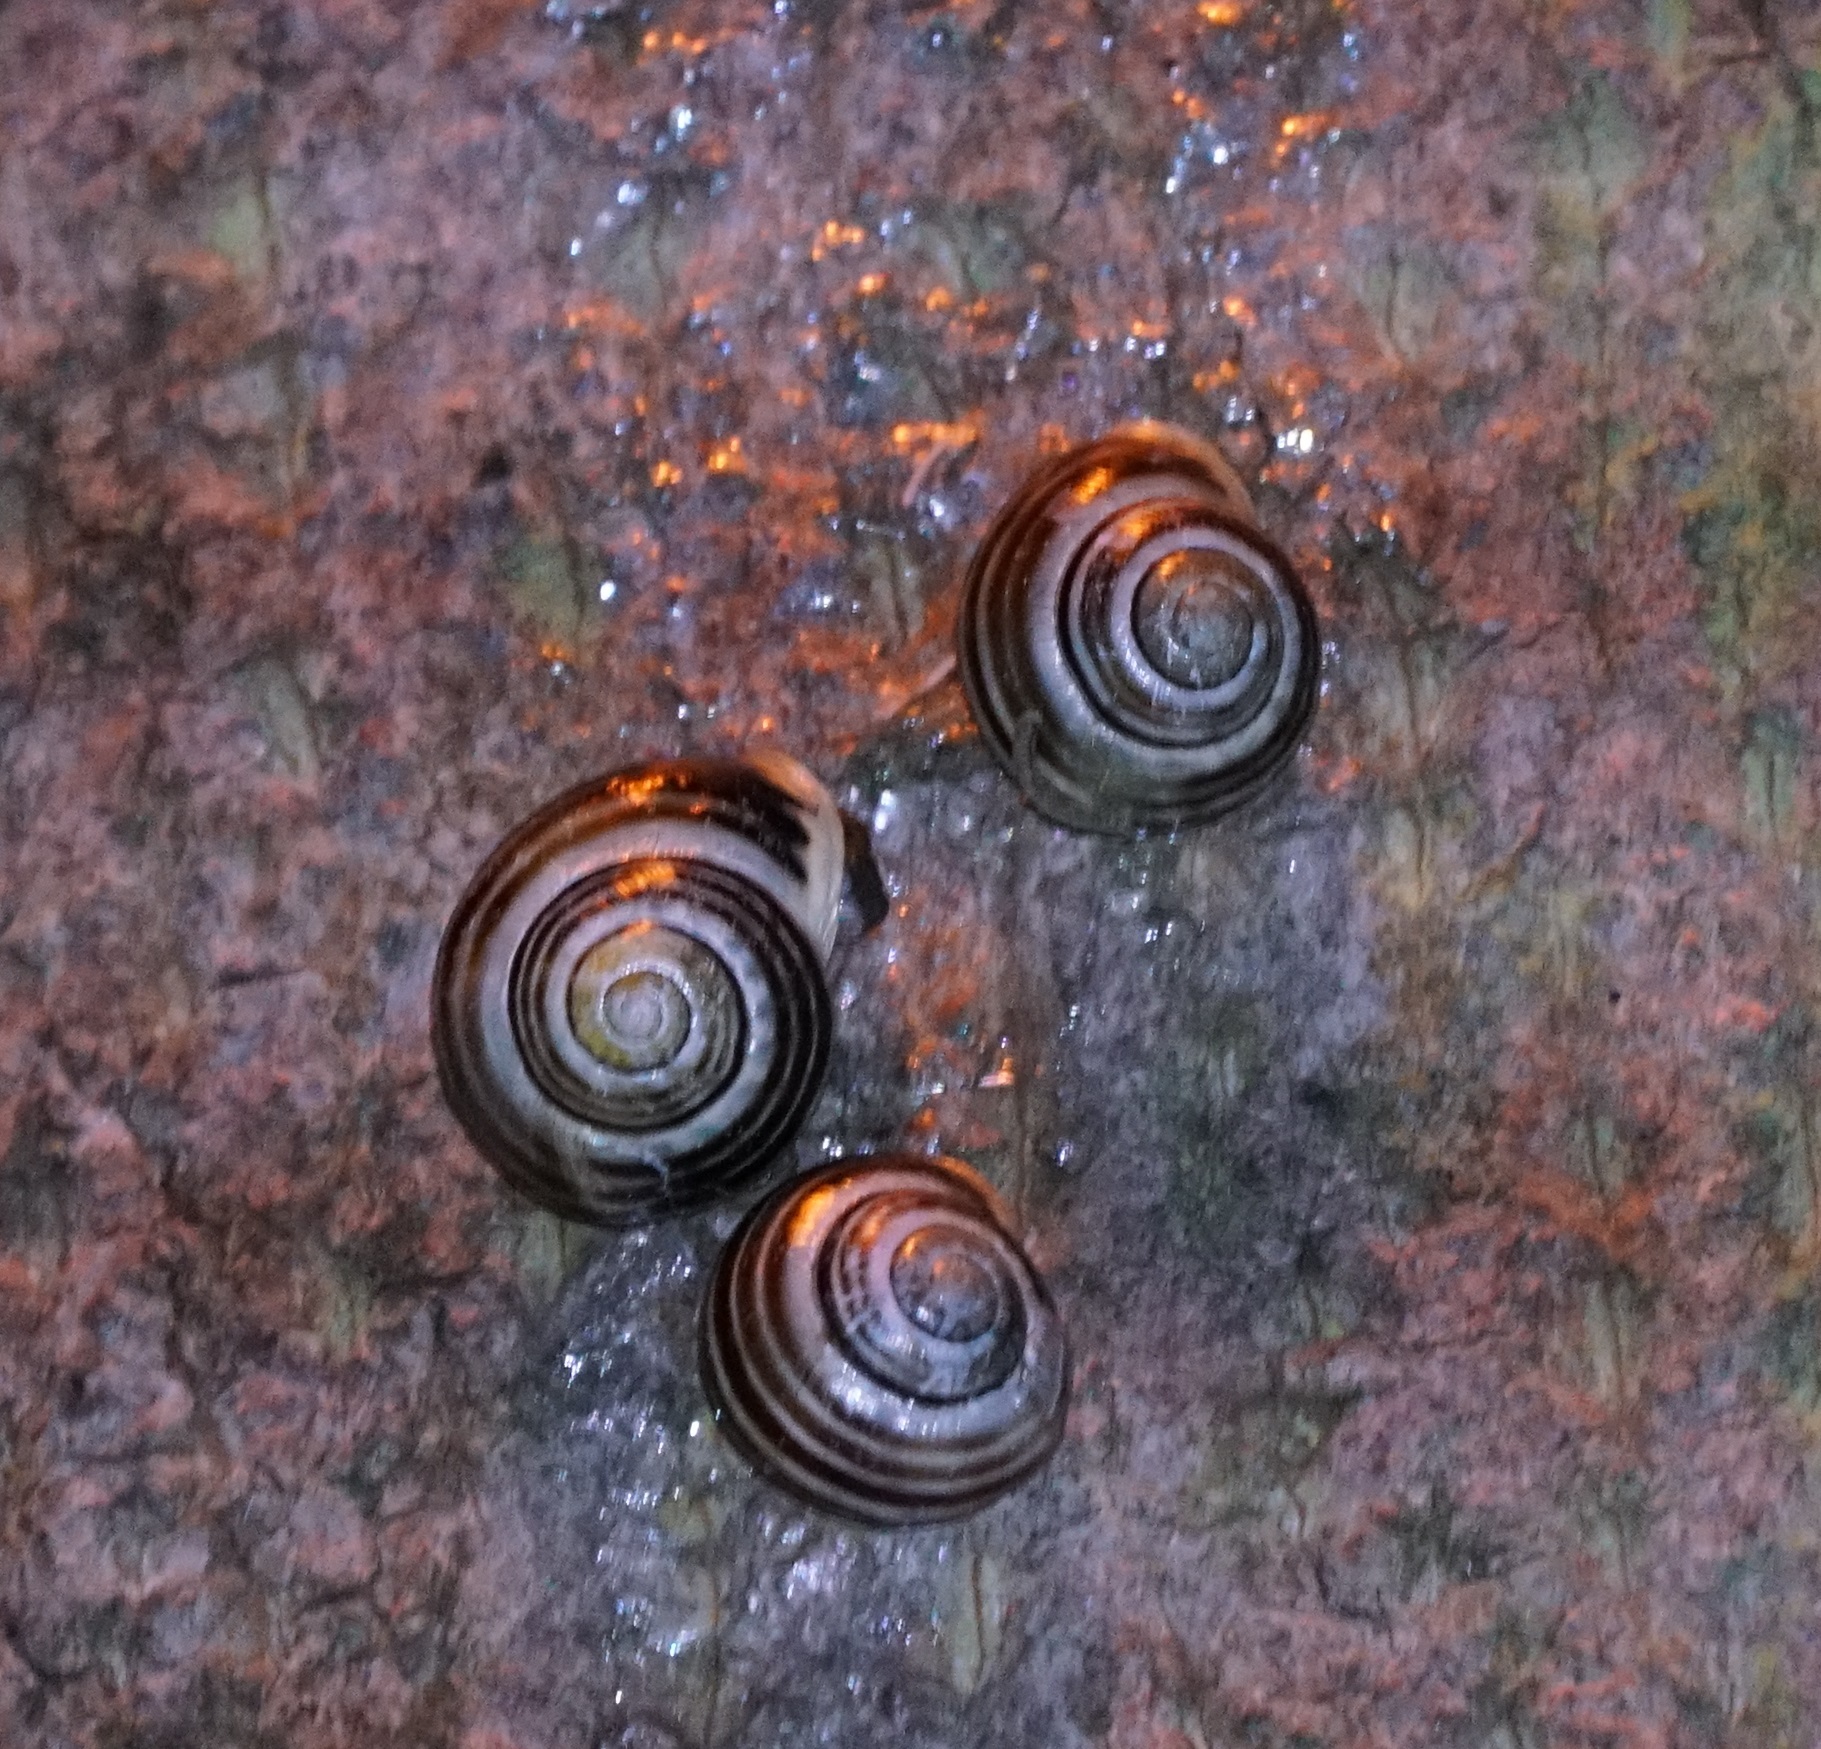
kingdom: Animalia
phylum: Mollusca
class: Gastropoda
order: Stylommatophora
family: Helicidae
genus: Cepaea
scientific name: Cepaea hortensis
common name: White-lip gardensnail
